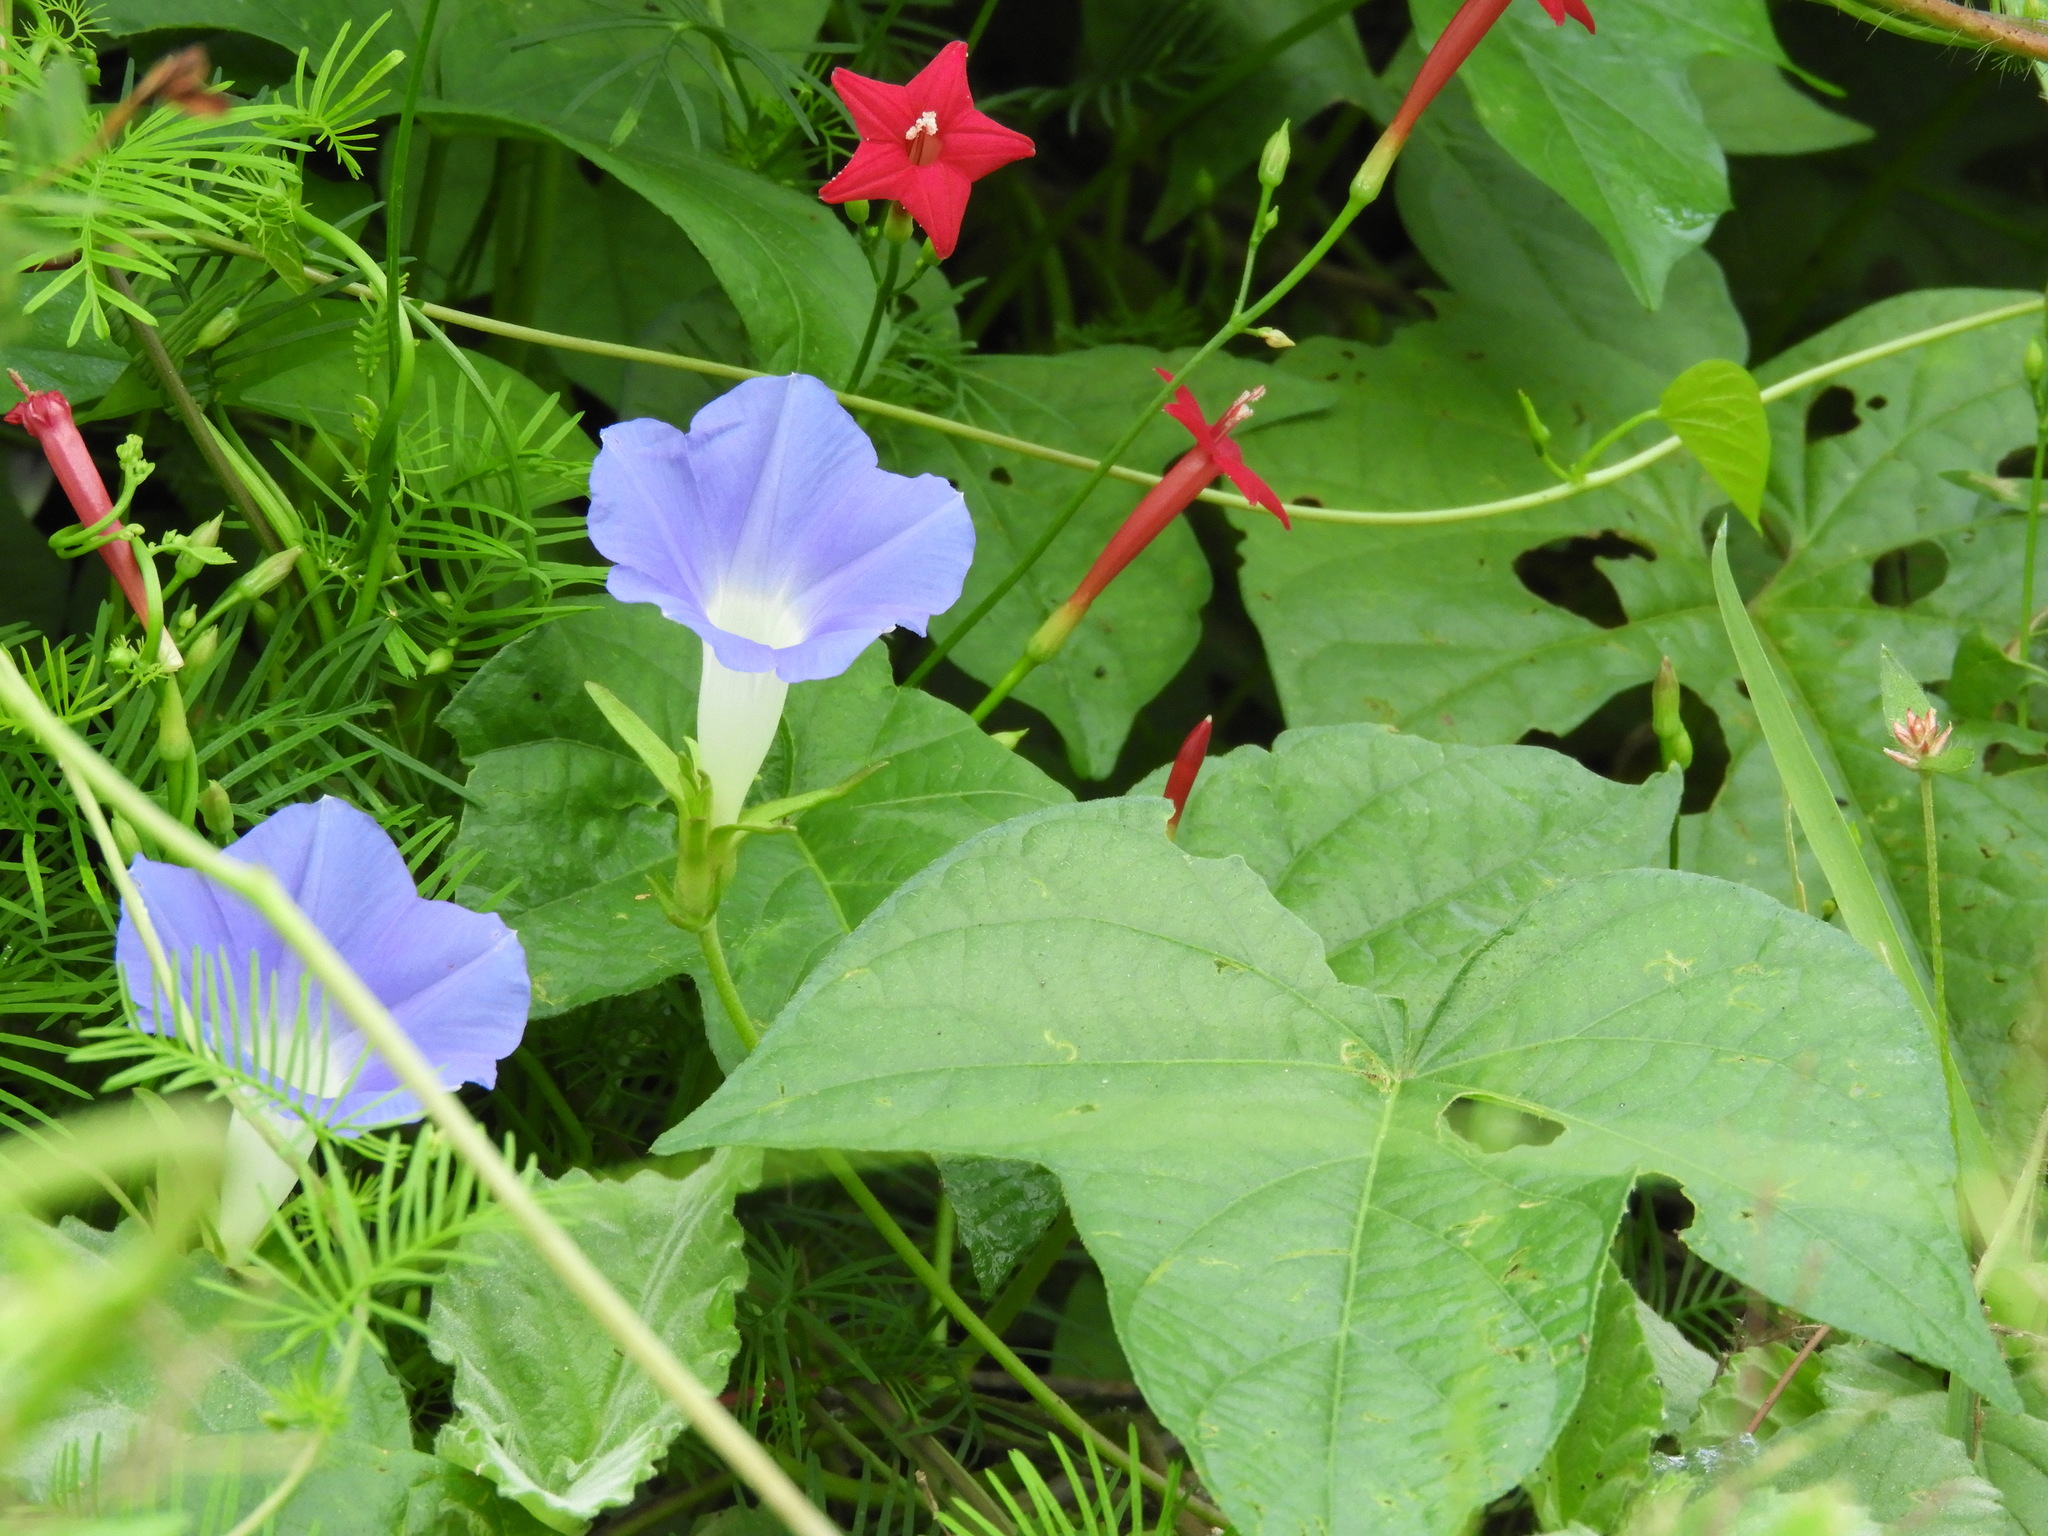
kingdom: Plantae
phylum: Tracheophyta
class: Magnoliopsida
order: Solanales
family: Convolvulaceae
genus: Ipomoea
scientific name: Ipomoea nil
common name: Japanese morning-glory
